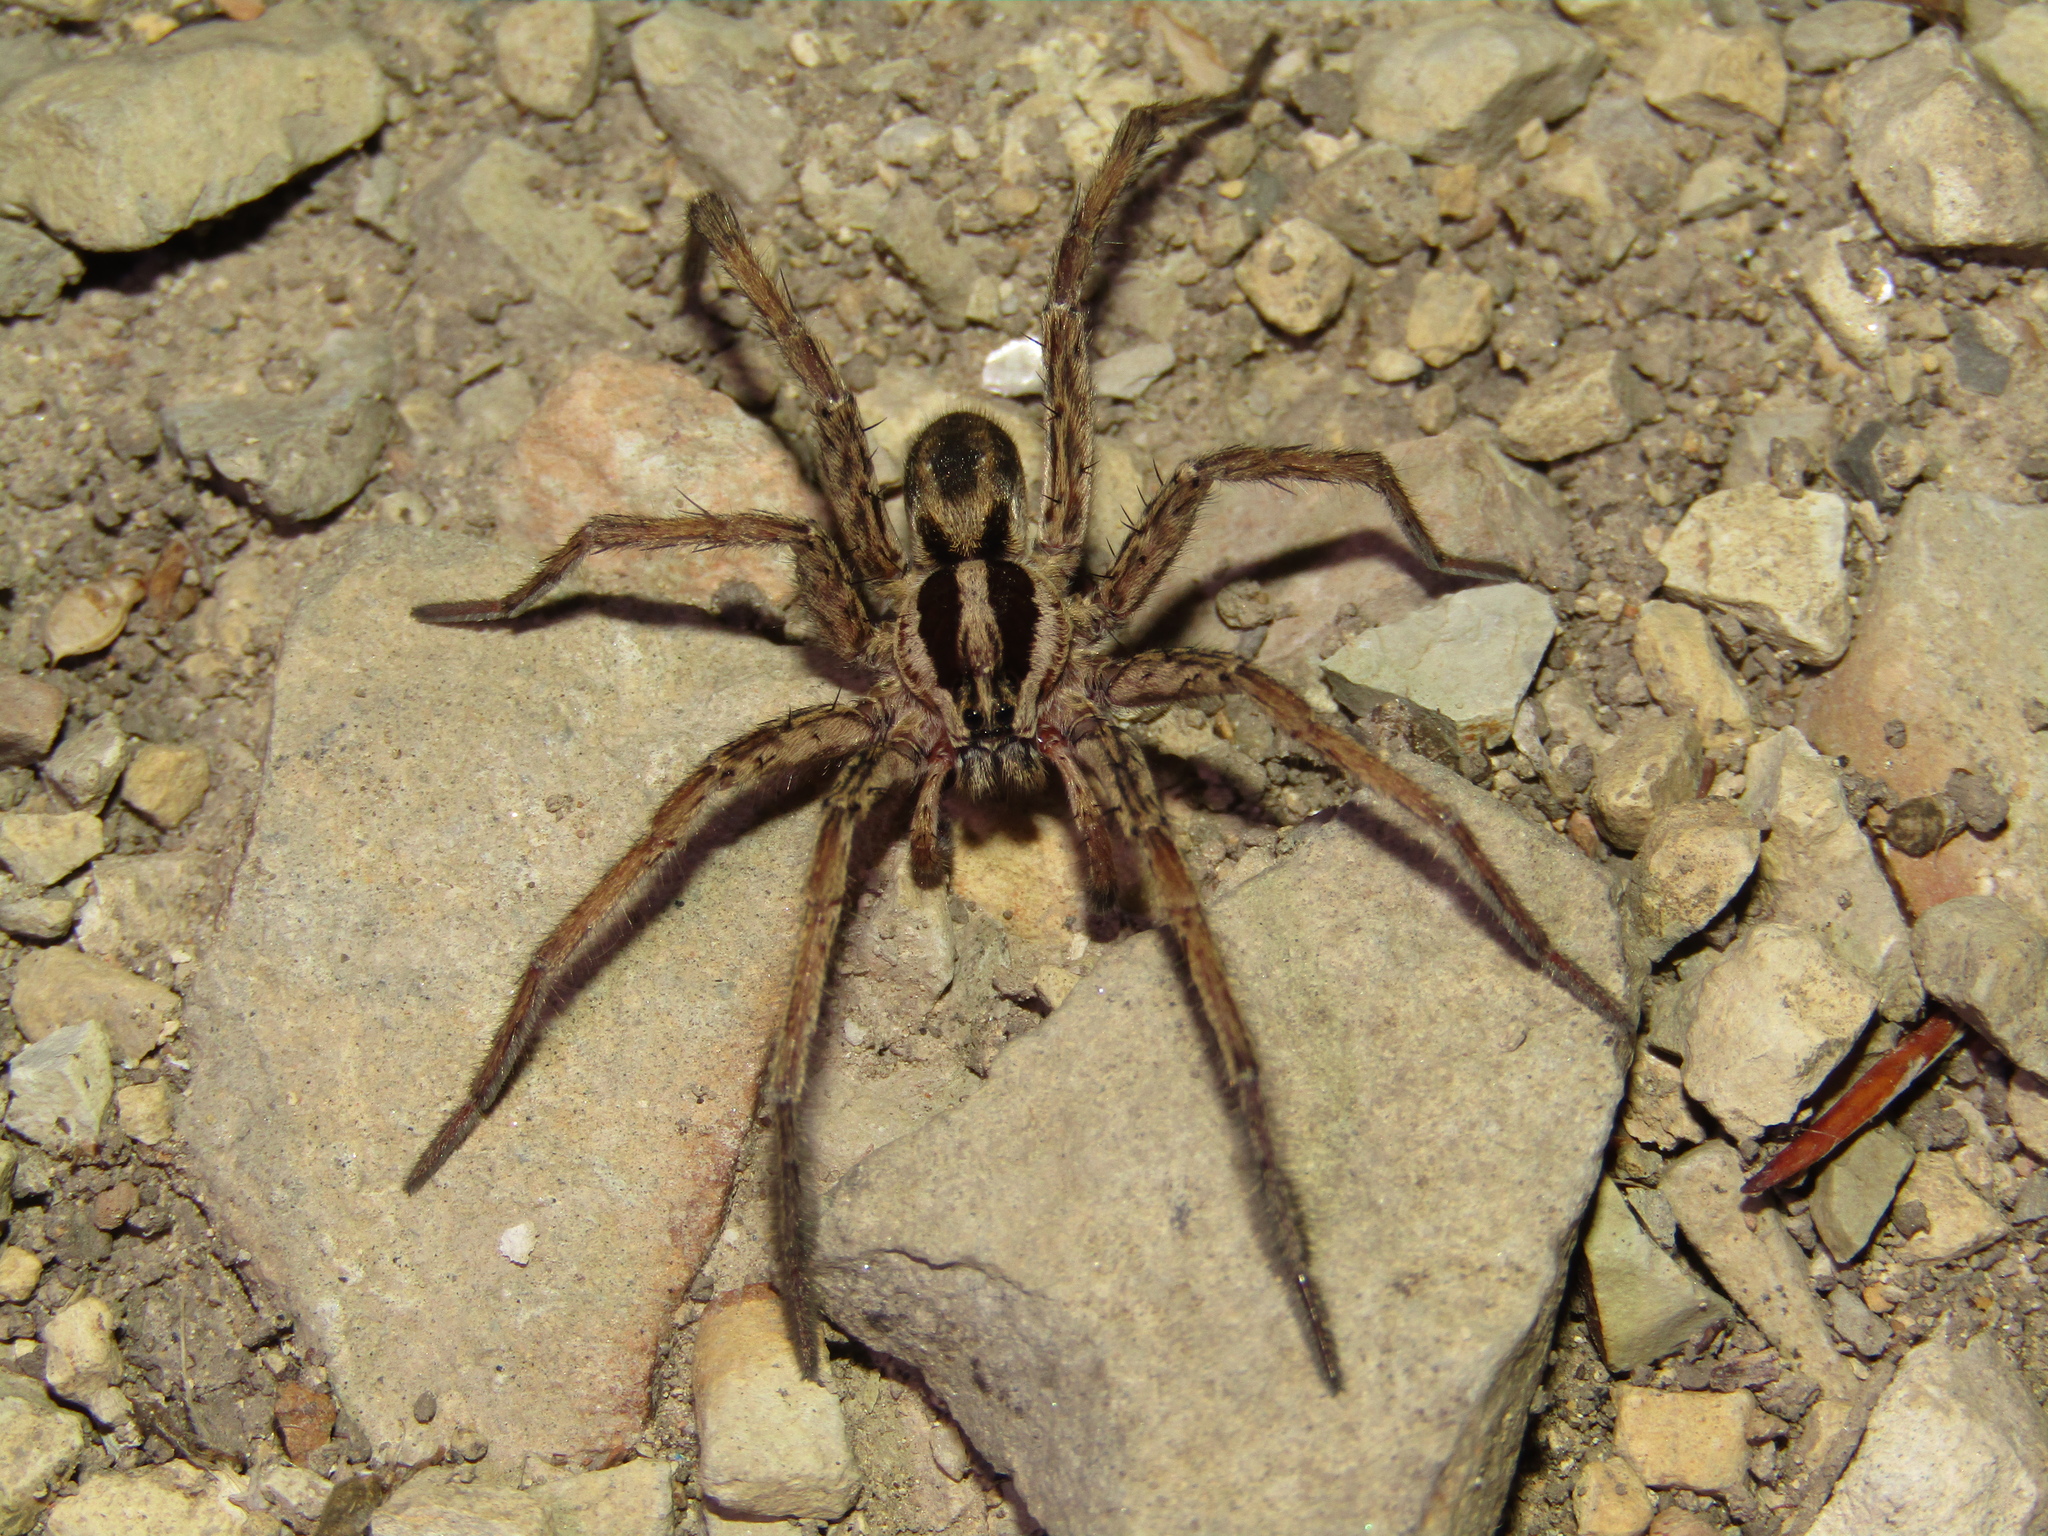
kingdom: Animalia
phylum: Arthropoda
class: Arachnida
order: Araneae
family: Lycosidae
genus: Hogna
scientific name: Hogna radiata
